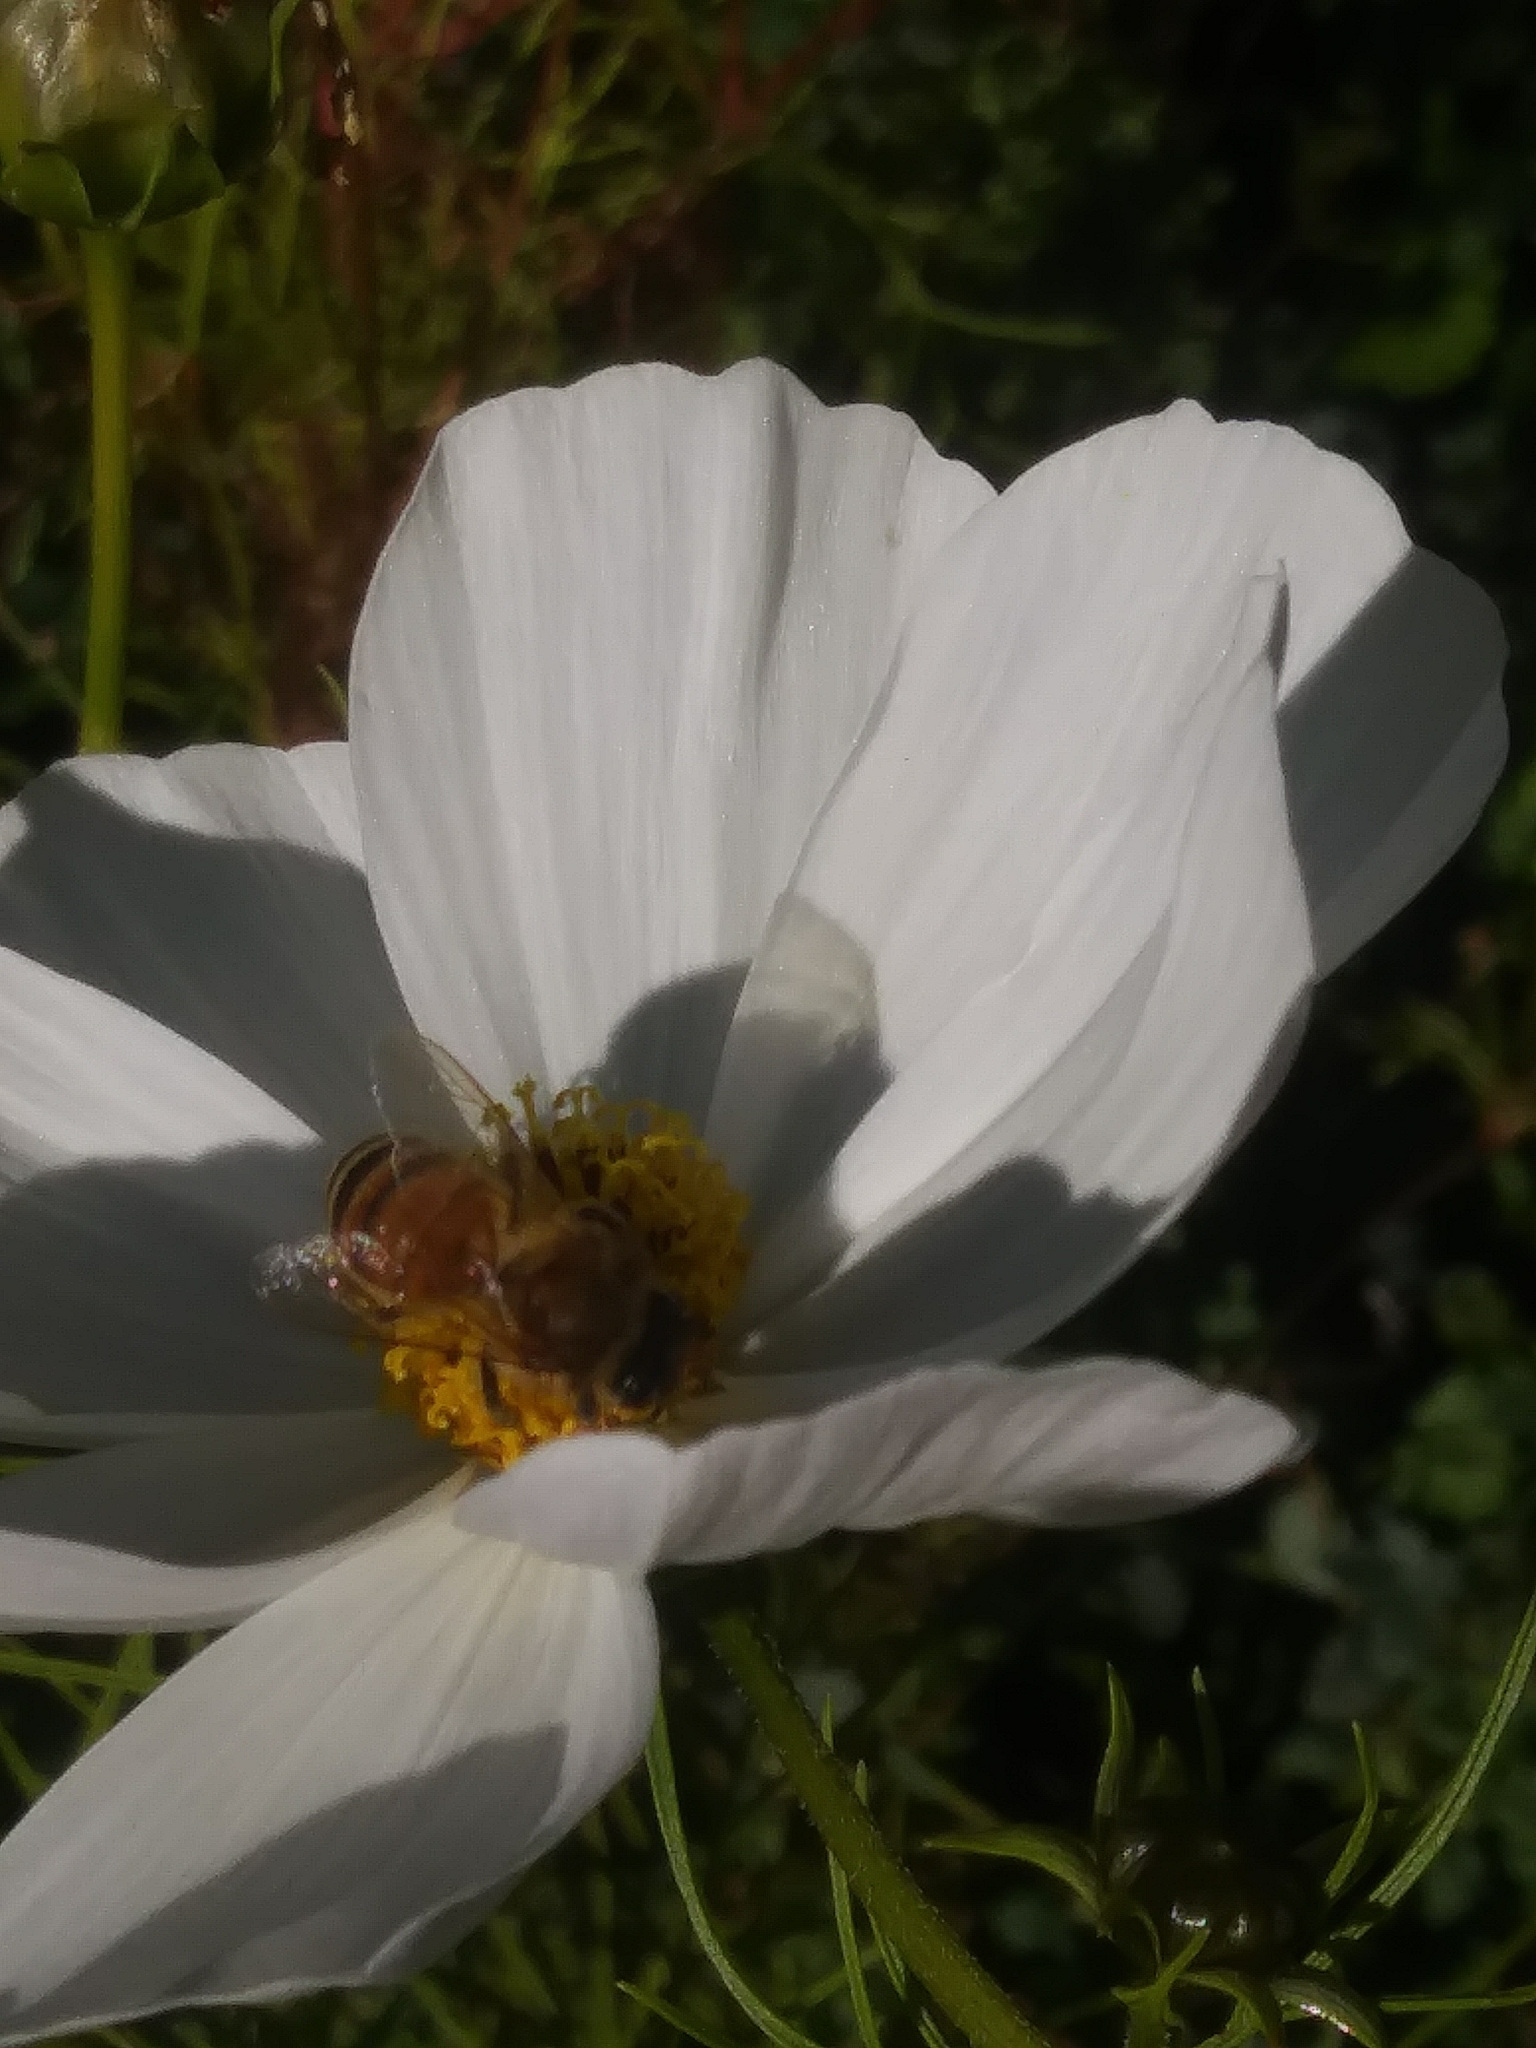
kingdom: Animalia
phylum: Arthropoda
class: Insecta
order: Hymenoptera
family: Apidae
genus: Apis
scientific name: Apis mellifera
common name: Honey bee
